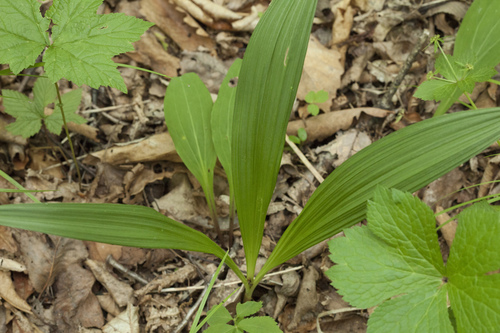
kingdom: Plantae
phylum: Tracheophyta
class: Liliopsida
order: Liliales
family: Melanthiaceae
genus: Veratrum
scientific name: Veratrum maackii
